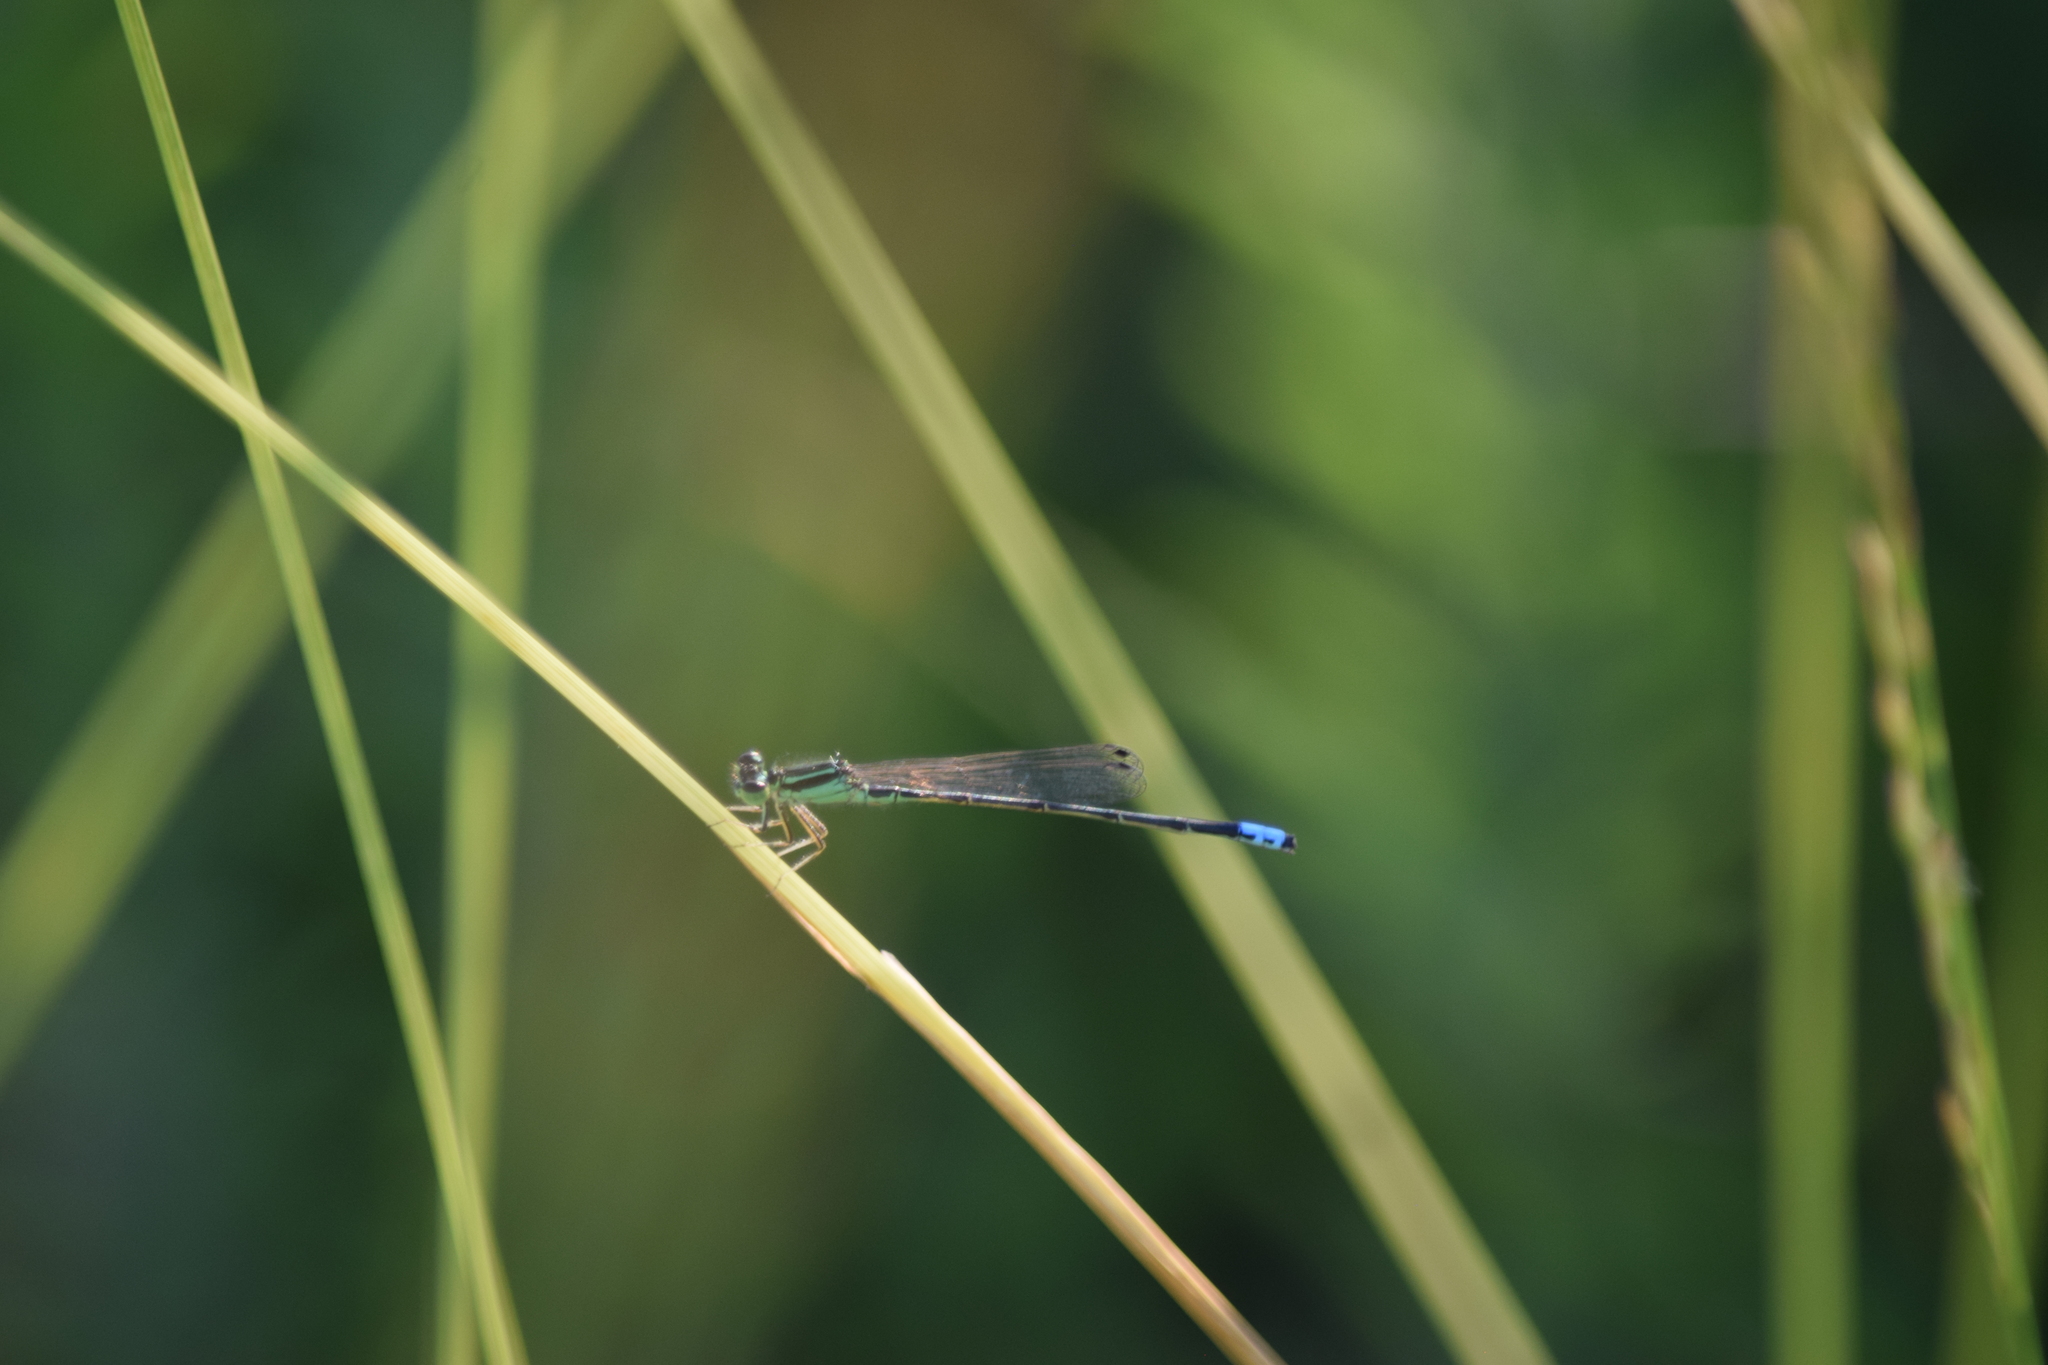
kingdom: Animalia
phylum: Arthropoda
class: Insecta
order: Odonata
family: Coenagrionidae
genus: Ischnura
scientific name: Ischnura verticalis
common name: Eastern forktail
